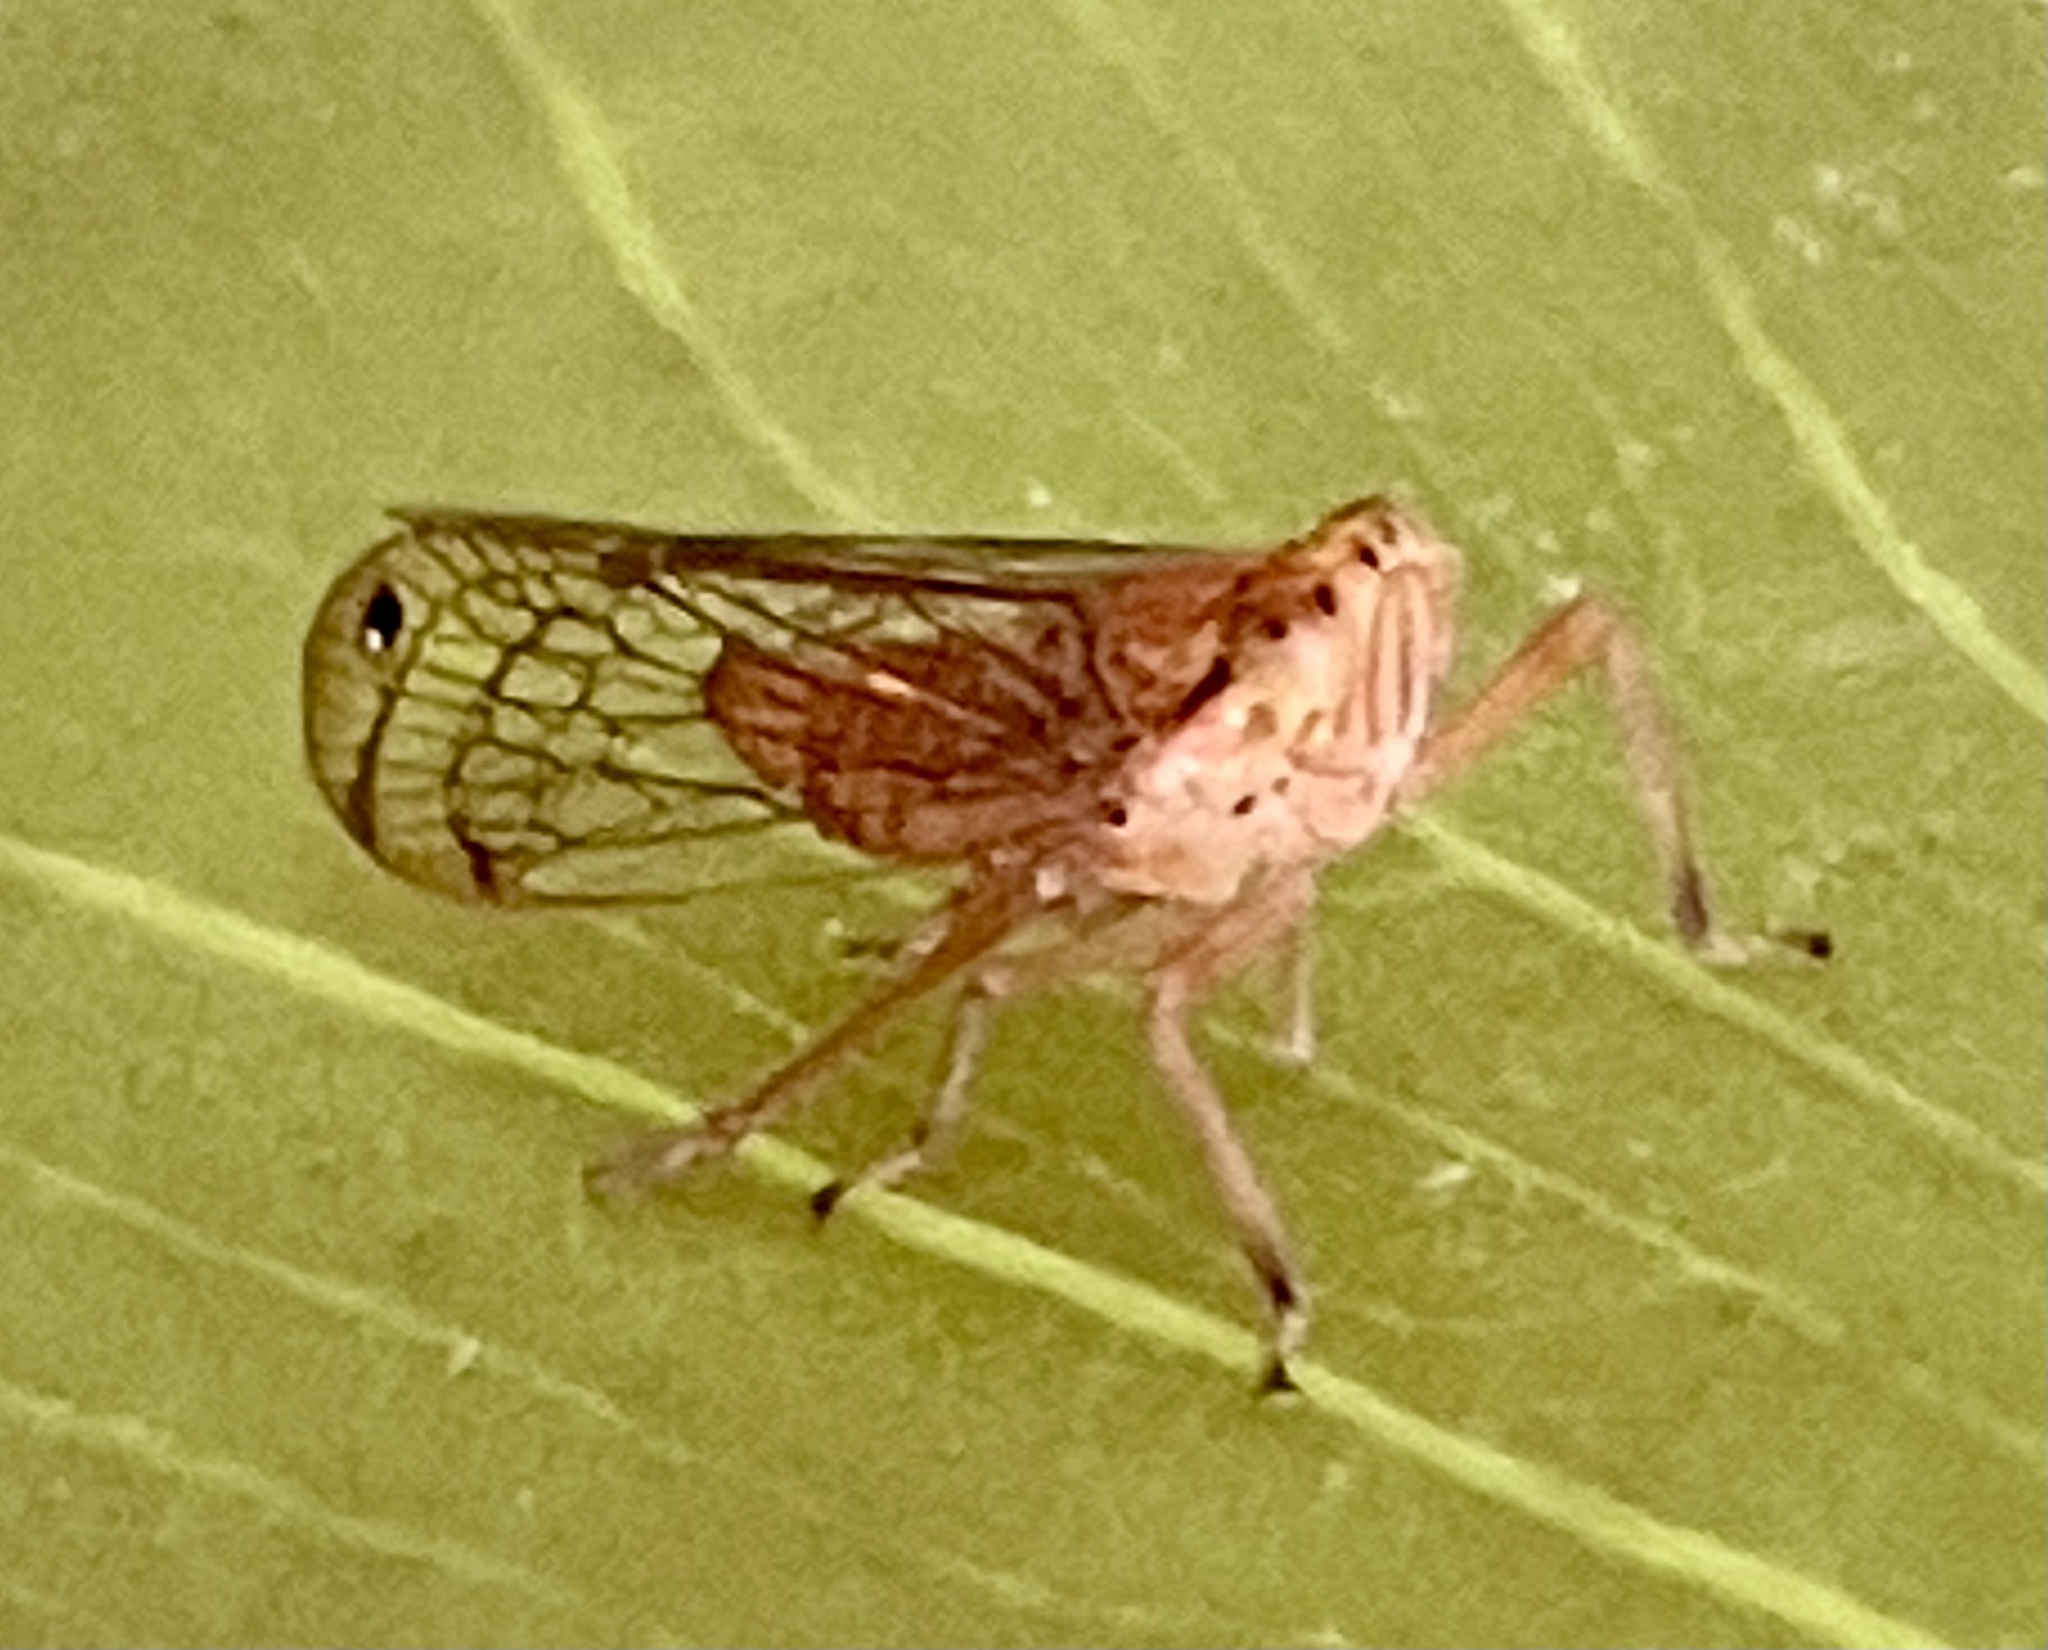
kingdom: Animalia
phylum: Arthropoda
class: Insecta
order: Hemiptera
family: Lophopidae
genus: Magia
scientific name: Magia subocellata
